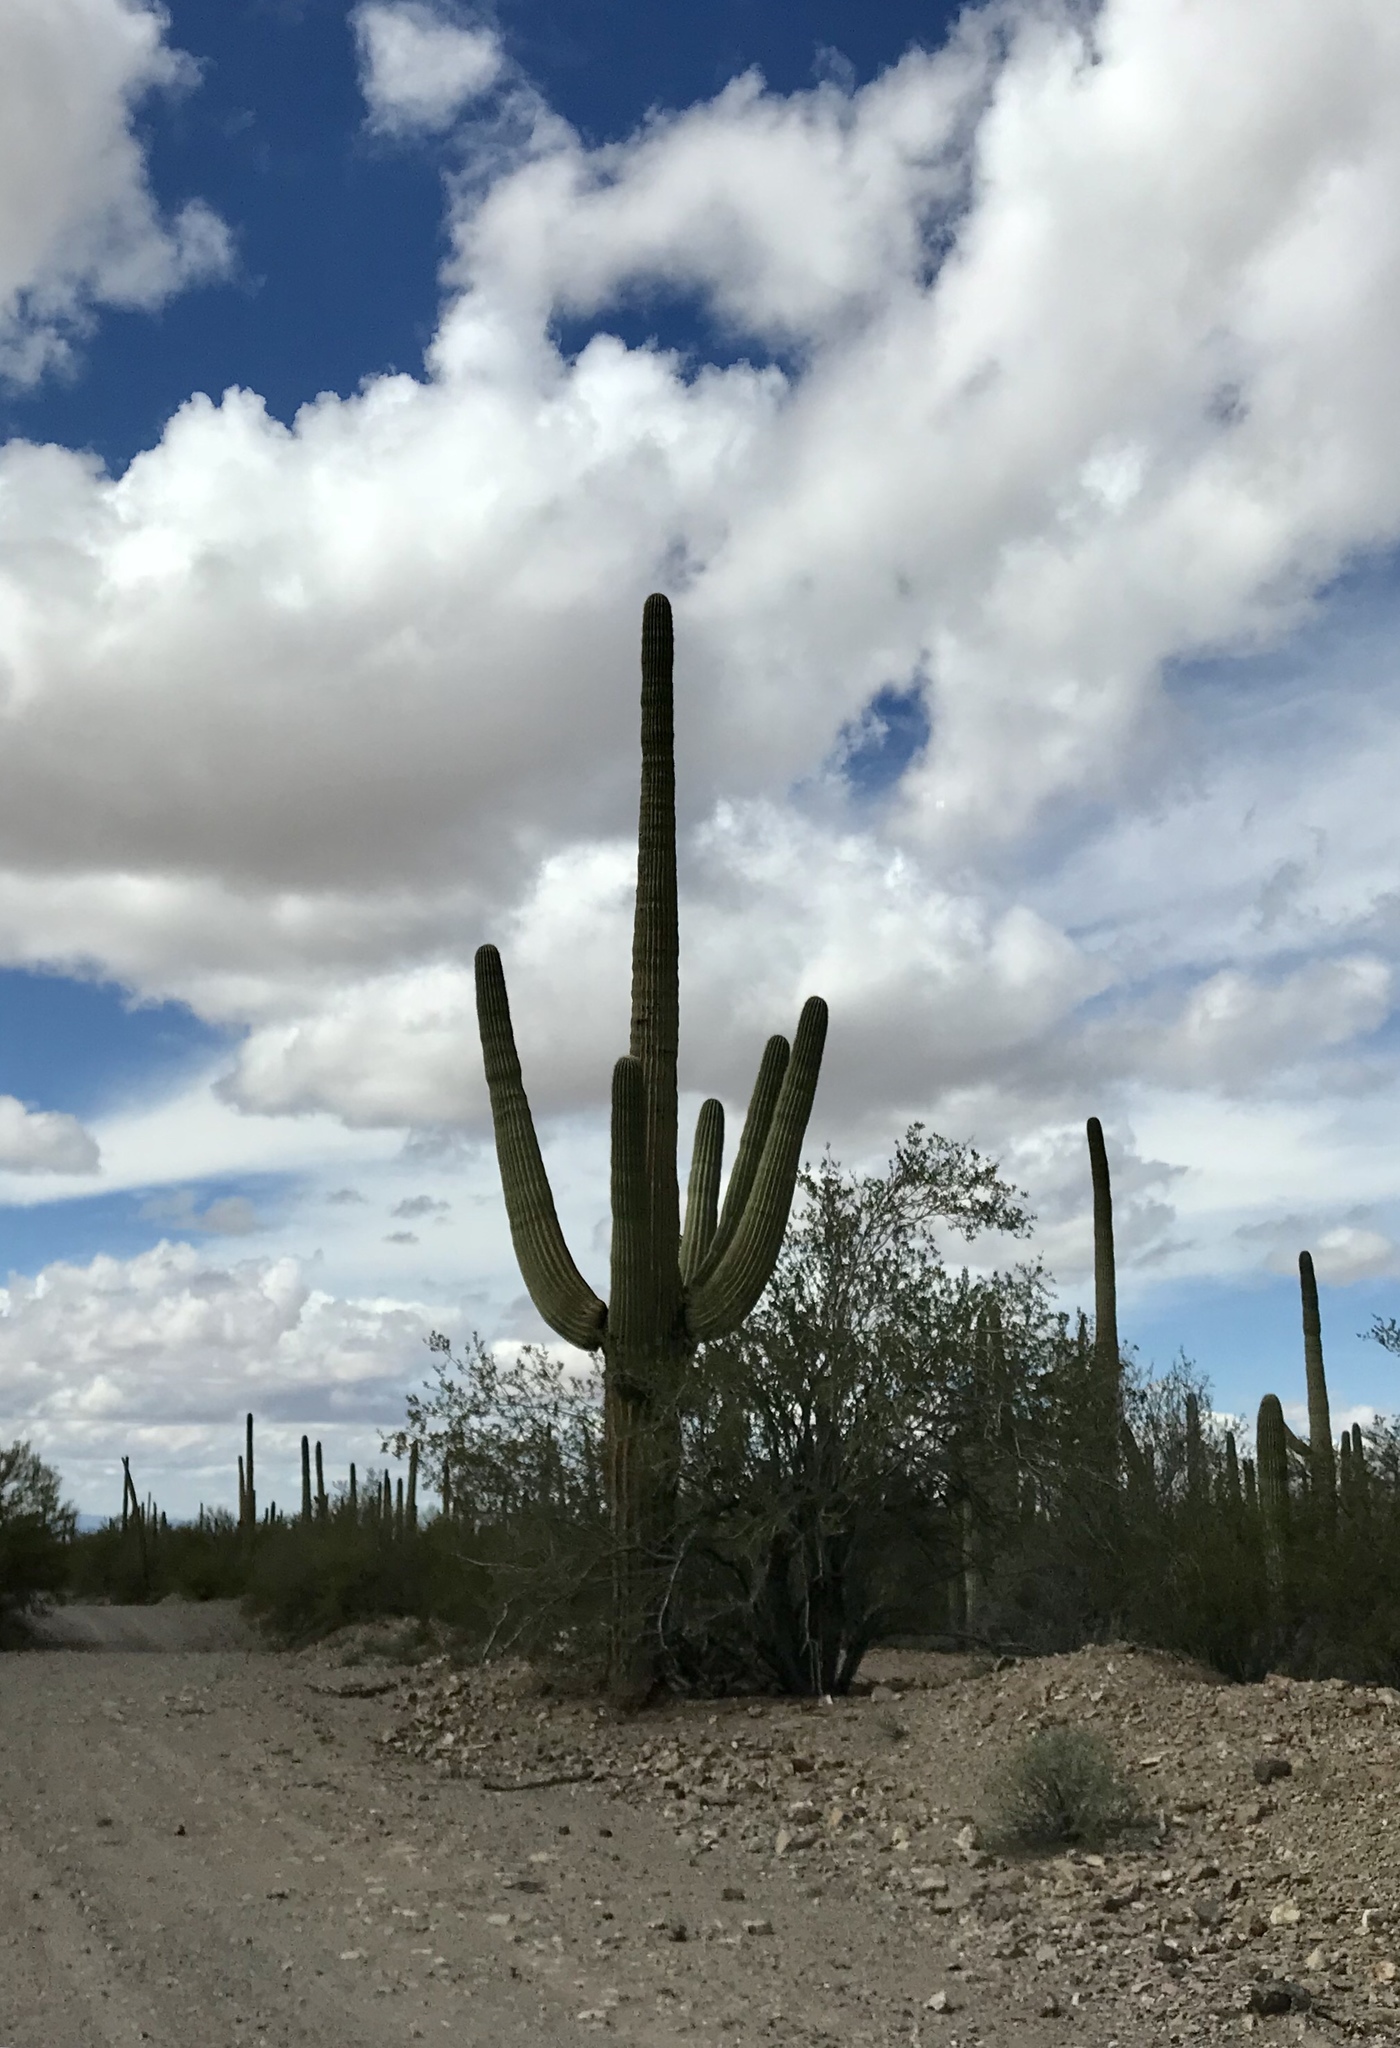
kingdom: Plantae
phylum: Tracheophyta
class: Magnoliopsida
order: Caryophyllales
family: Cactaceae
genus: Carnegiea
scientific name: Carnegiea gigantea
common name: Saguaro
